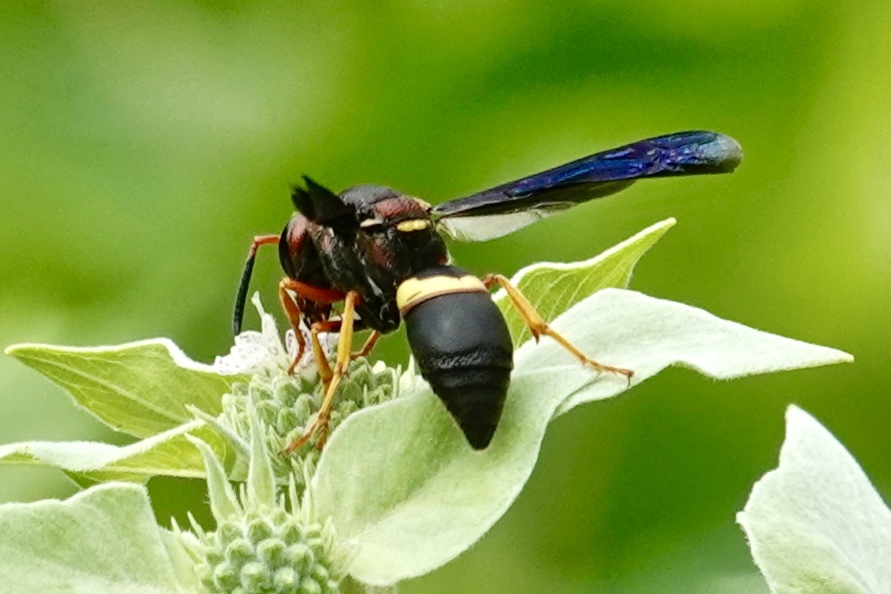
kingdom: Animalia
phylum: Arthropoda
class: Insecta
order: Hymenoptera
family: Eumenidae
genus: Euodynerus
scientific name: Euodynerus crypticus
